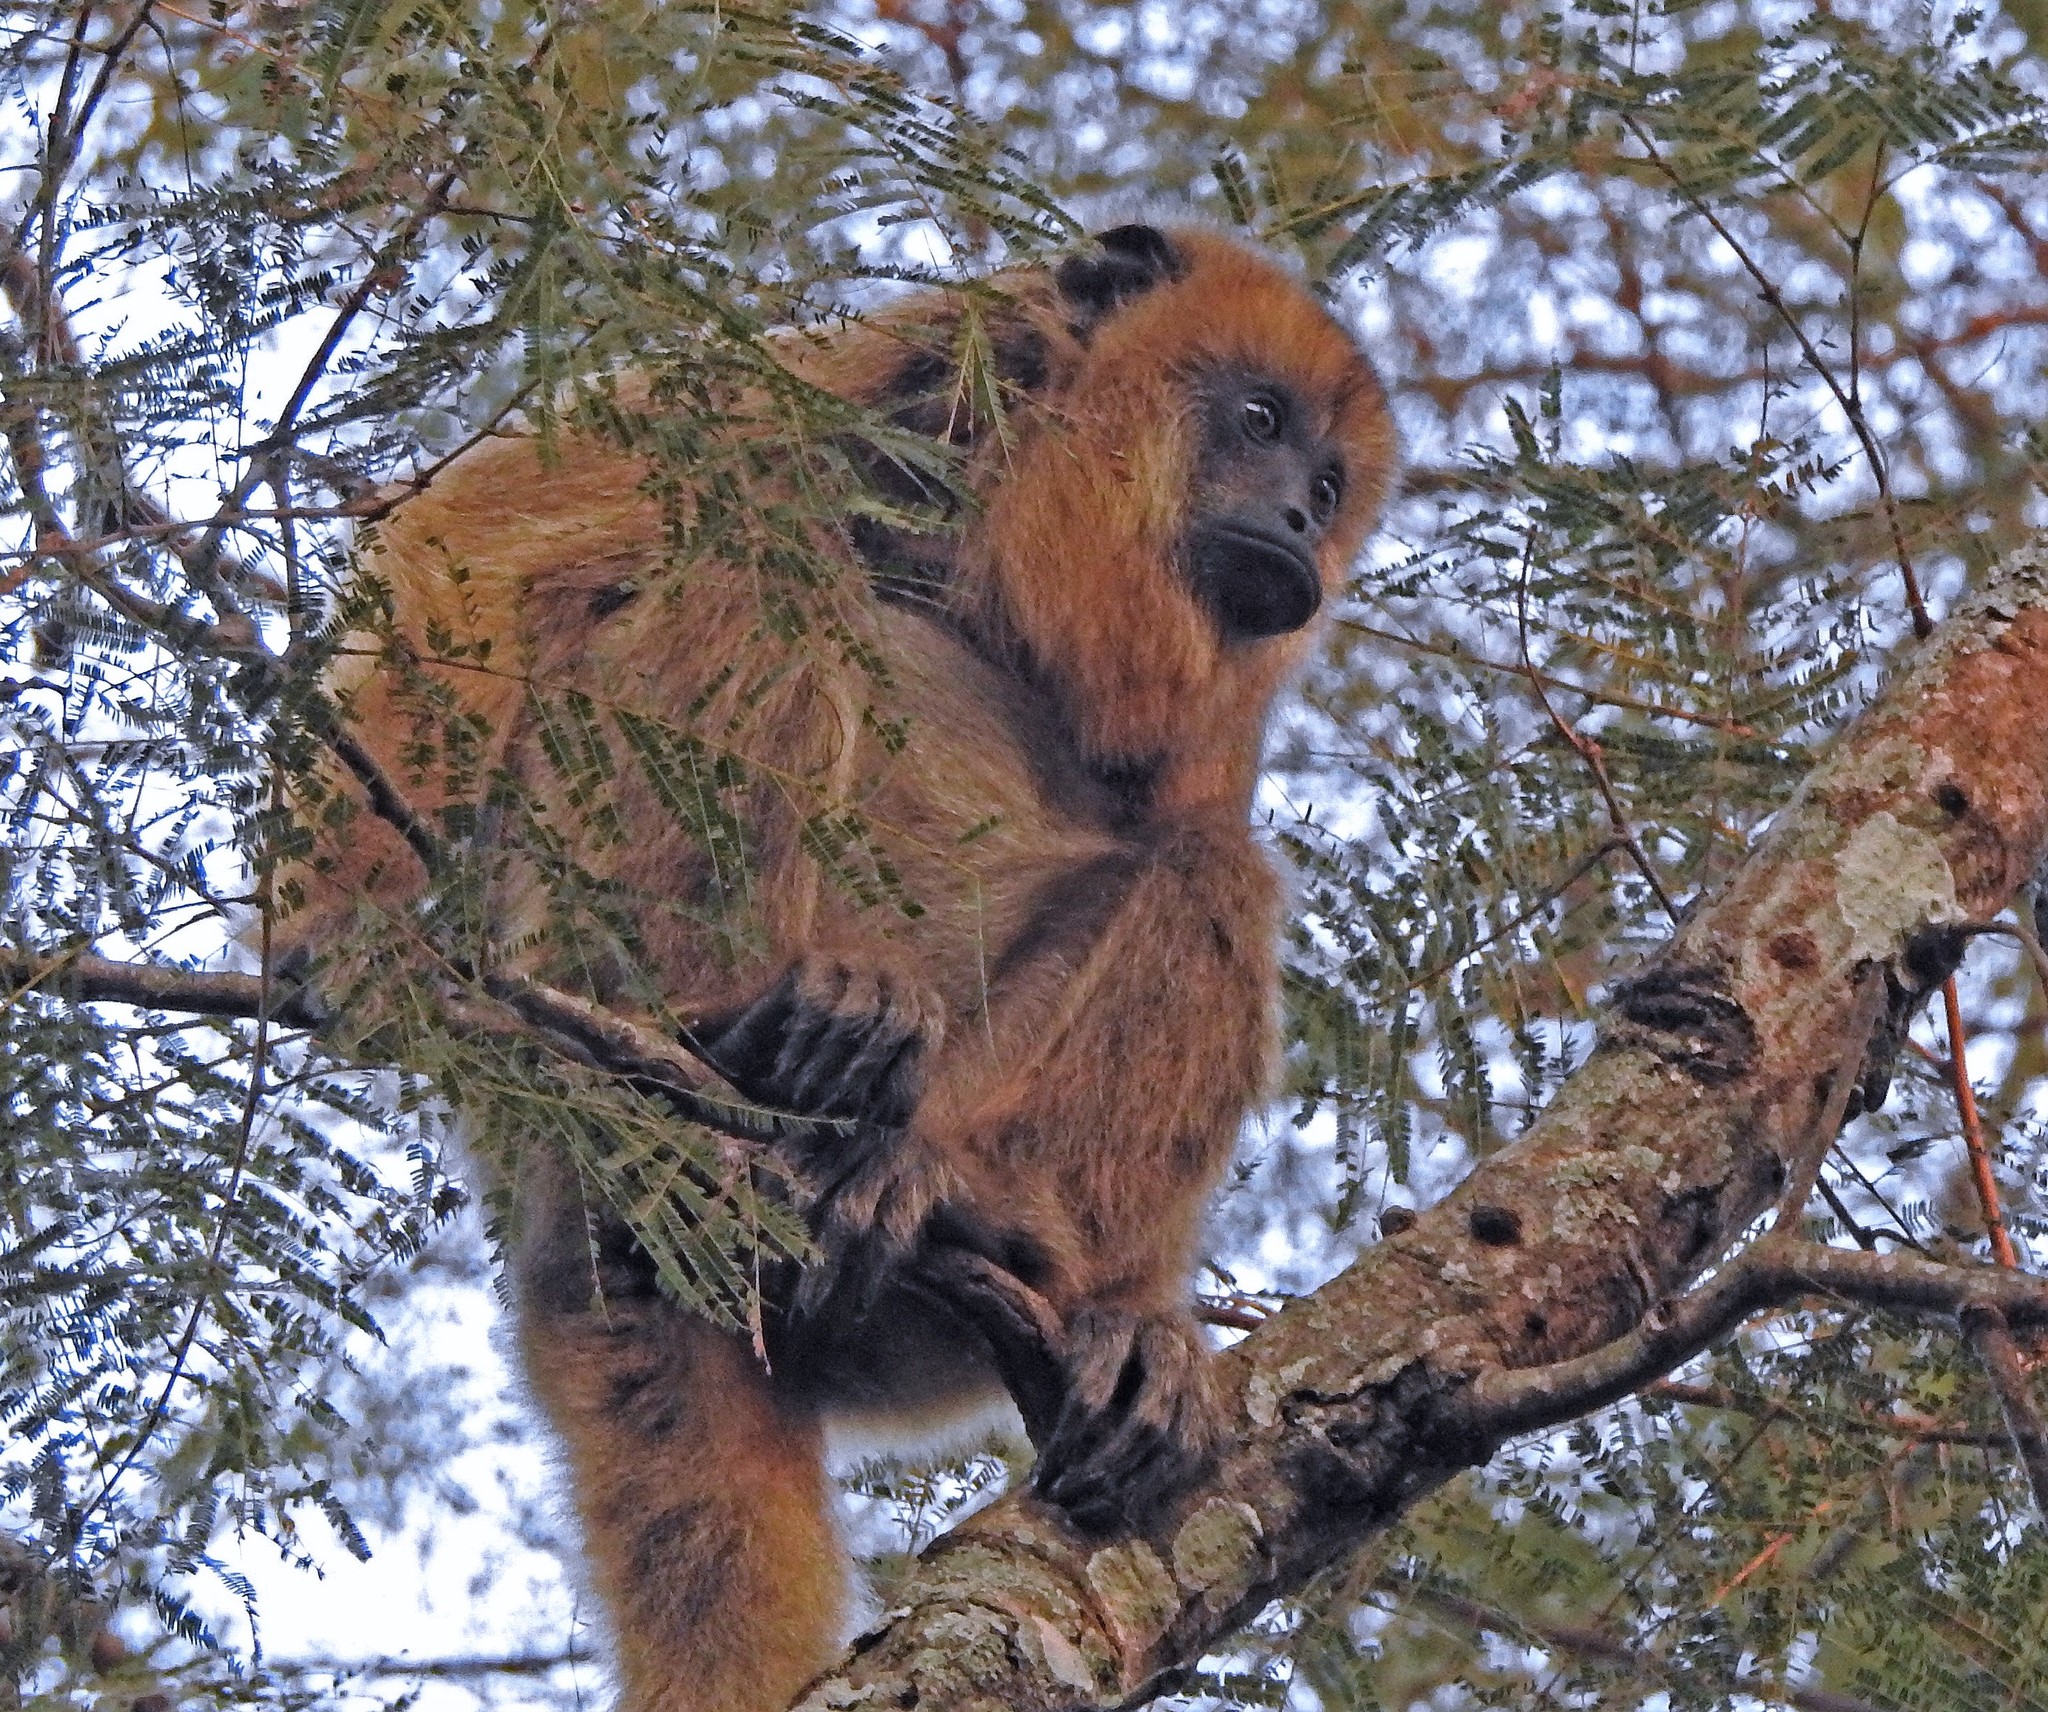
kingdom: Animalia
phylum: Chordata
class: Mammalia
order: Primates
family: Atelidae
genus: Alouatta
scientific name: Alouatta caraya
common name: Black howler
